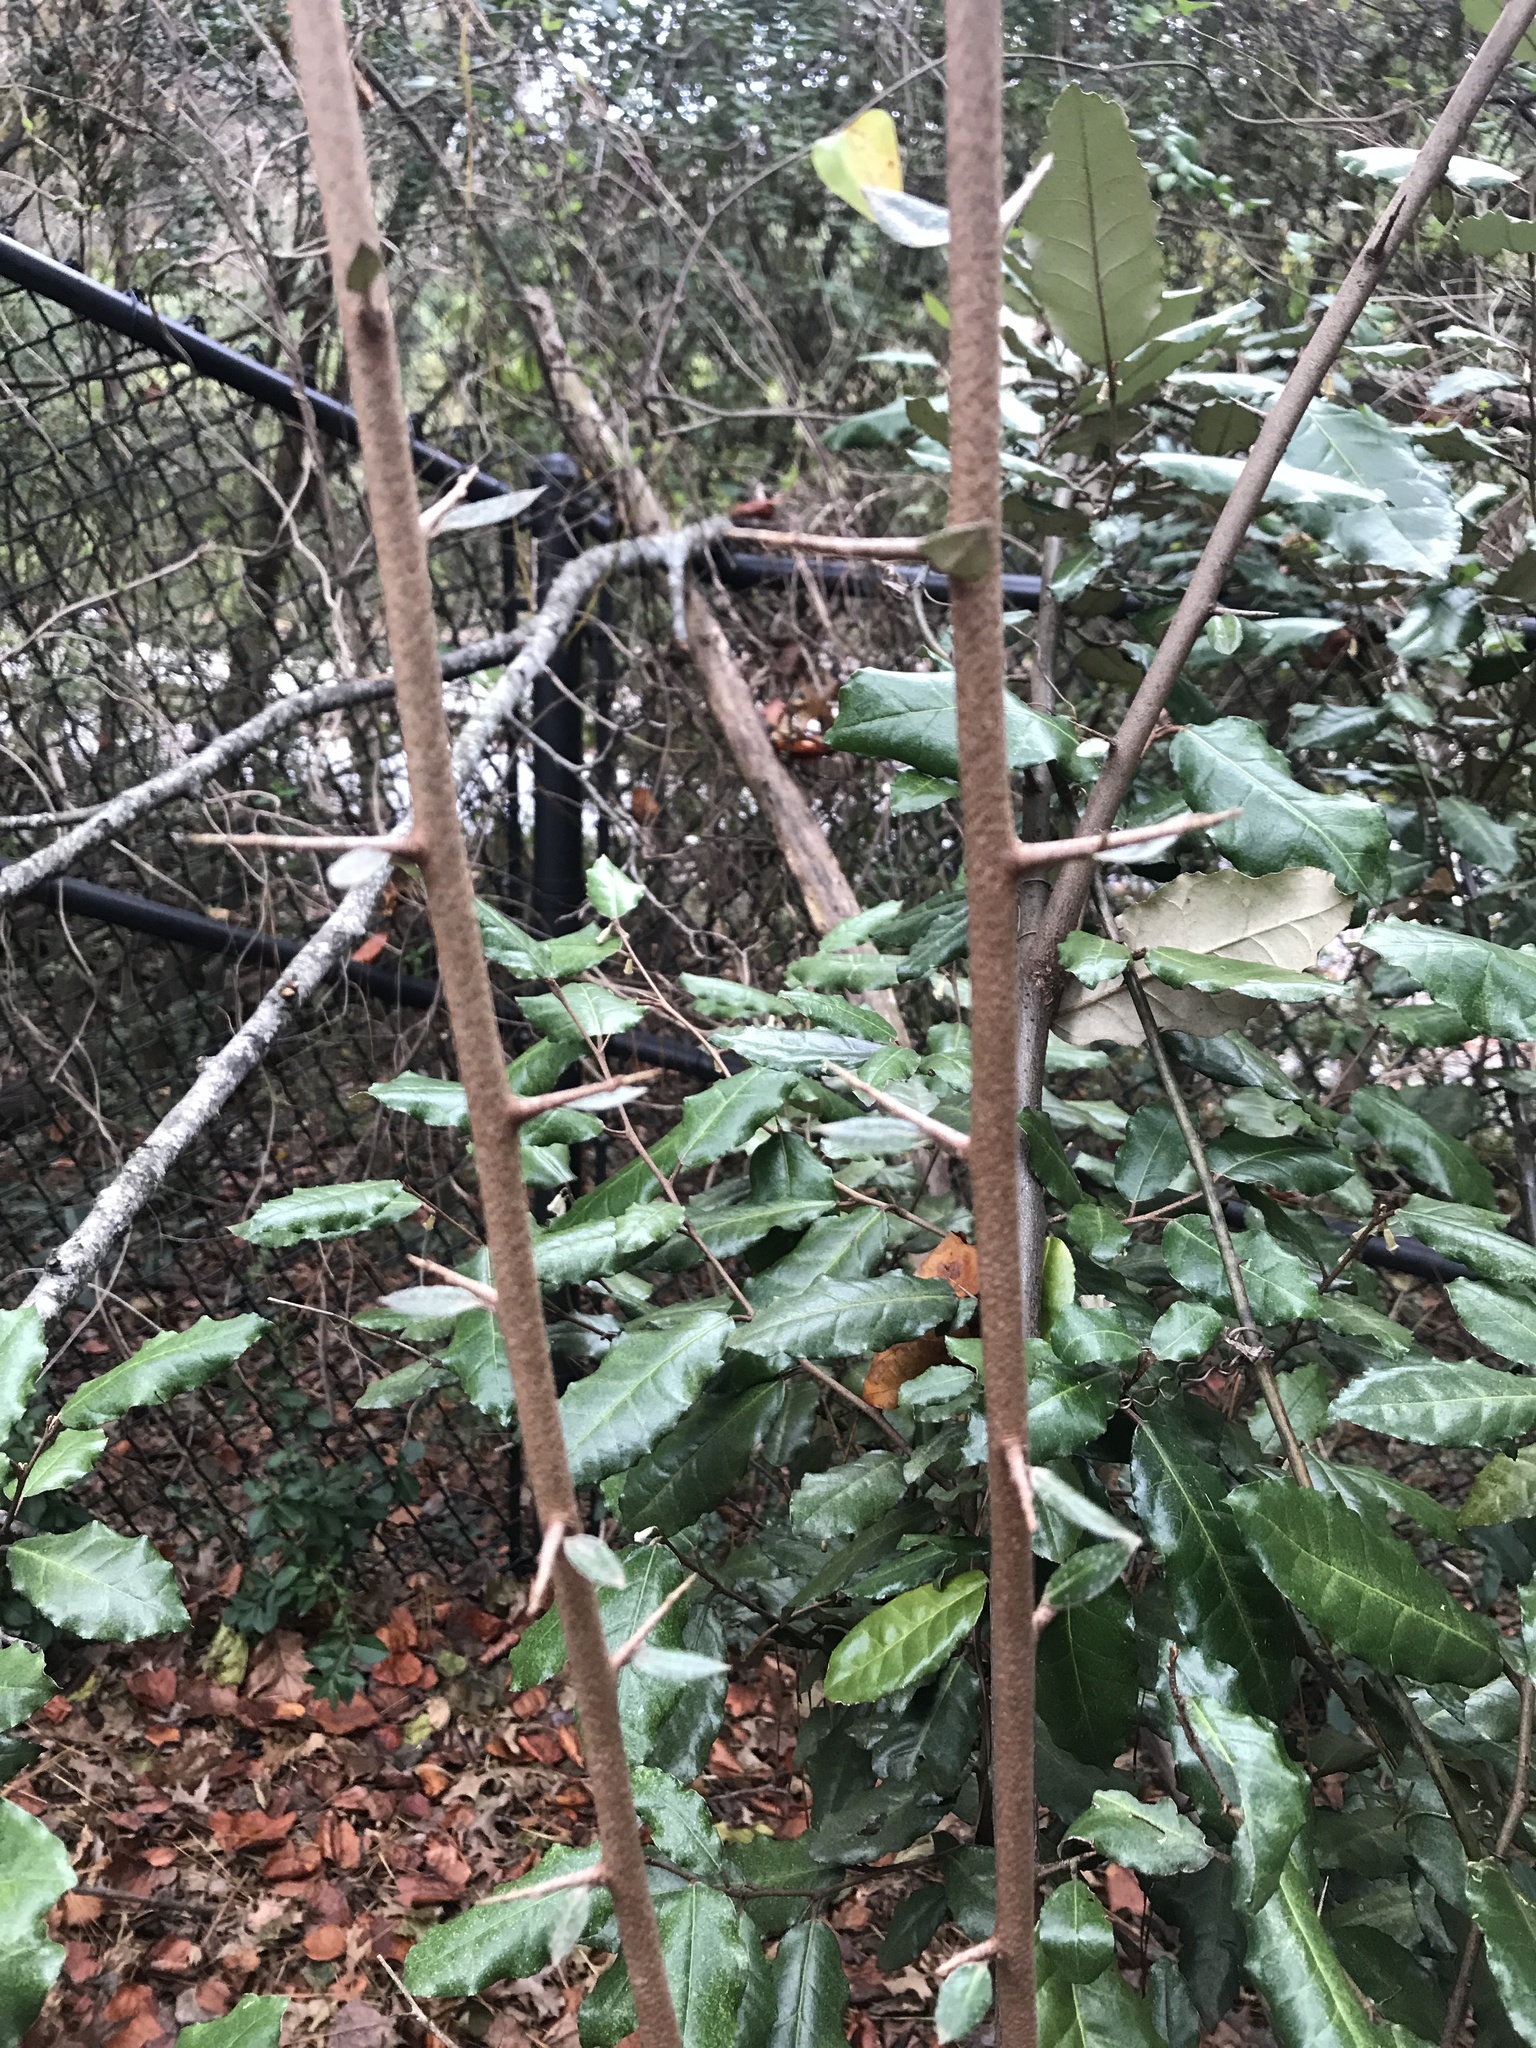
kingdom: Plantae
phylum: Tracheophyta
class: Magnoliopsida
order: Rosales
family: Elaeagnaceae
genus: Elaeagnus
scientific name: Elaeagnus pungens
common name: Spiny oleaster
